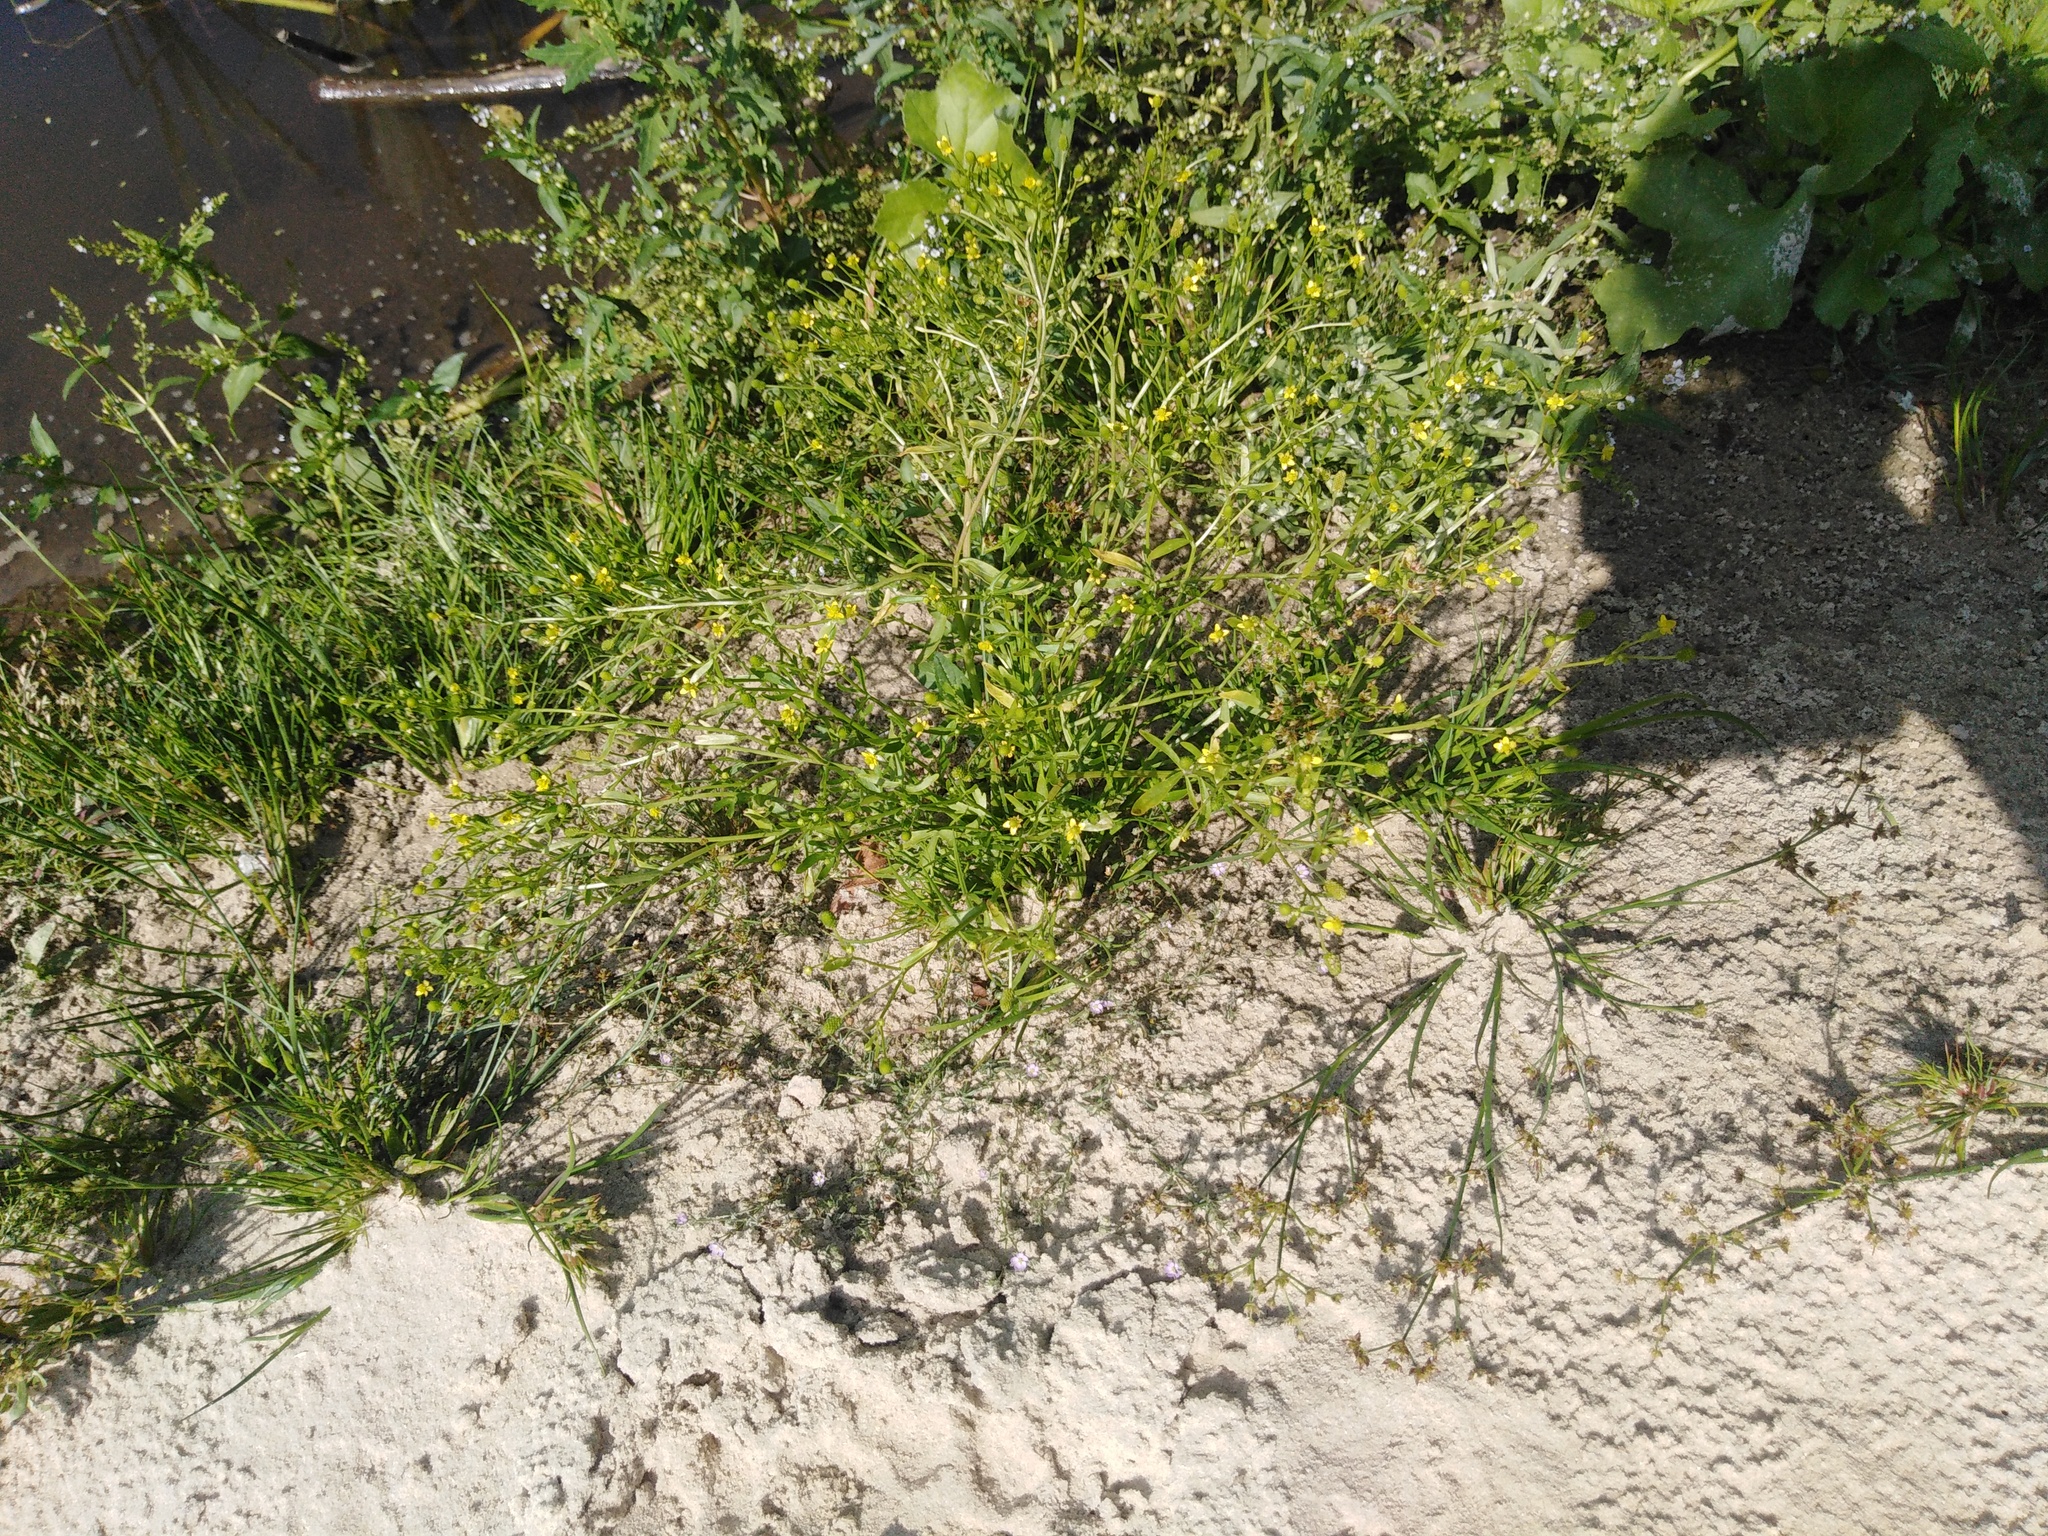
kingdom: Plantae
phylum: Tracheophyta
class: Magnoliopsida
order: Ranunculales
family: Ranunculaceae
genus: Ranunculus
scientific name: Ranunculus sceleratus
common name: Celery-leaved buttercup
